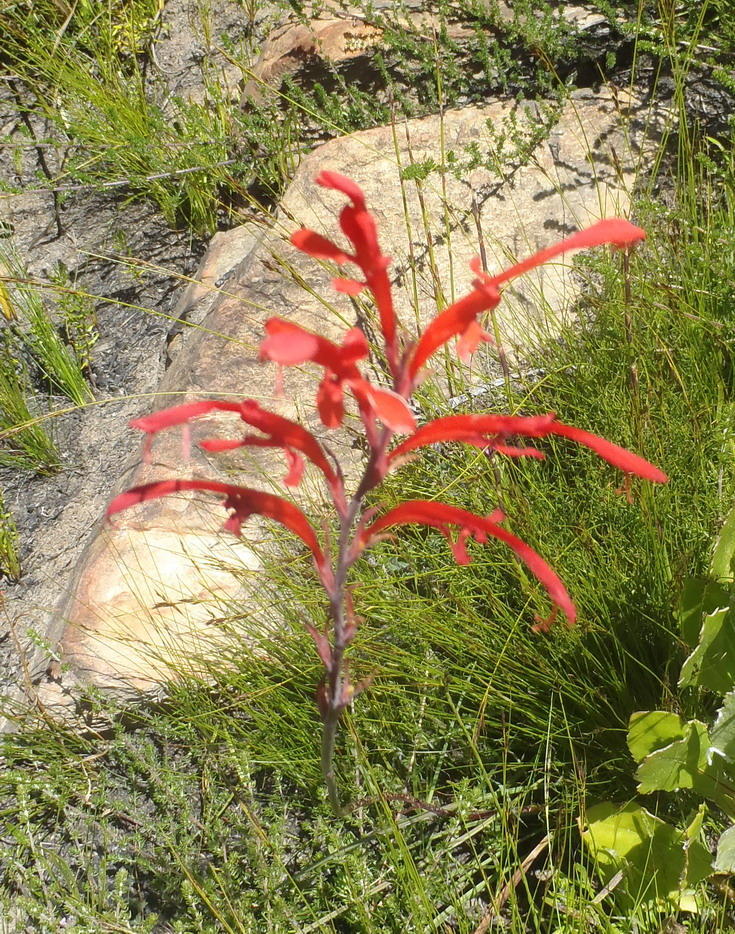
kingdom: Plantae
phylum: Tracheophyta
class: Liliopsida
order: Asparagales
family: Iridaceae
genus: Tritoniopsis
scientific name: Tritoniopsis caffra
